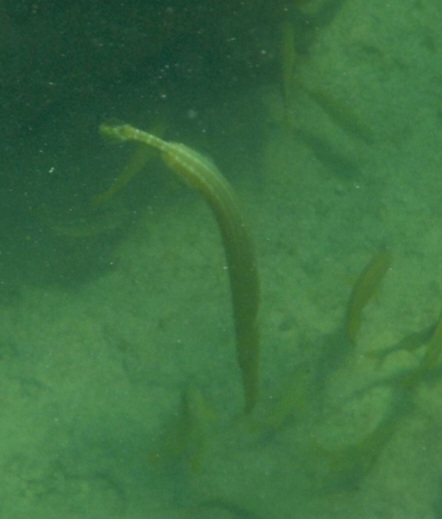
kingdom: Animalia
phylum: Chordata
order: Syngnathiformes
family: Aulostomidae
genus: Aulostomus
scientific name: Aulostomus maculatus
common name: West atlantic trumpetfish
